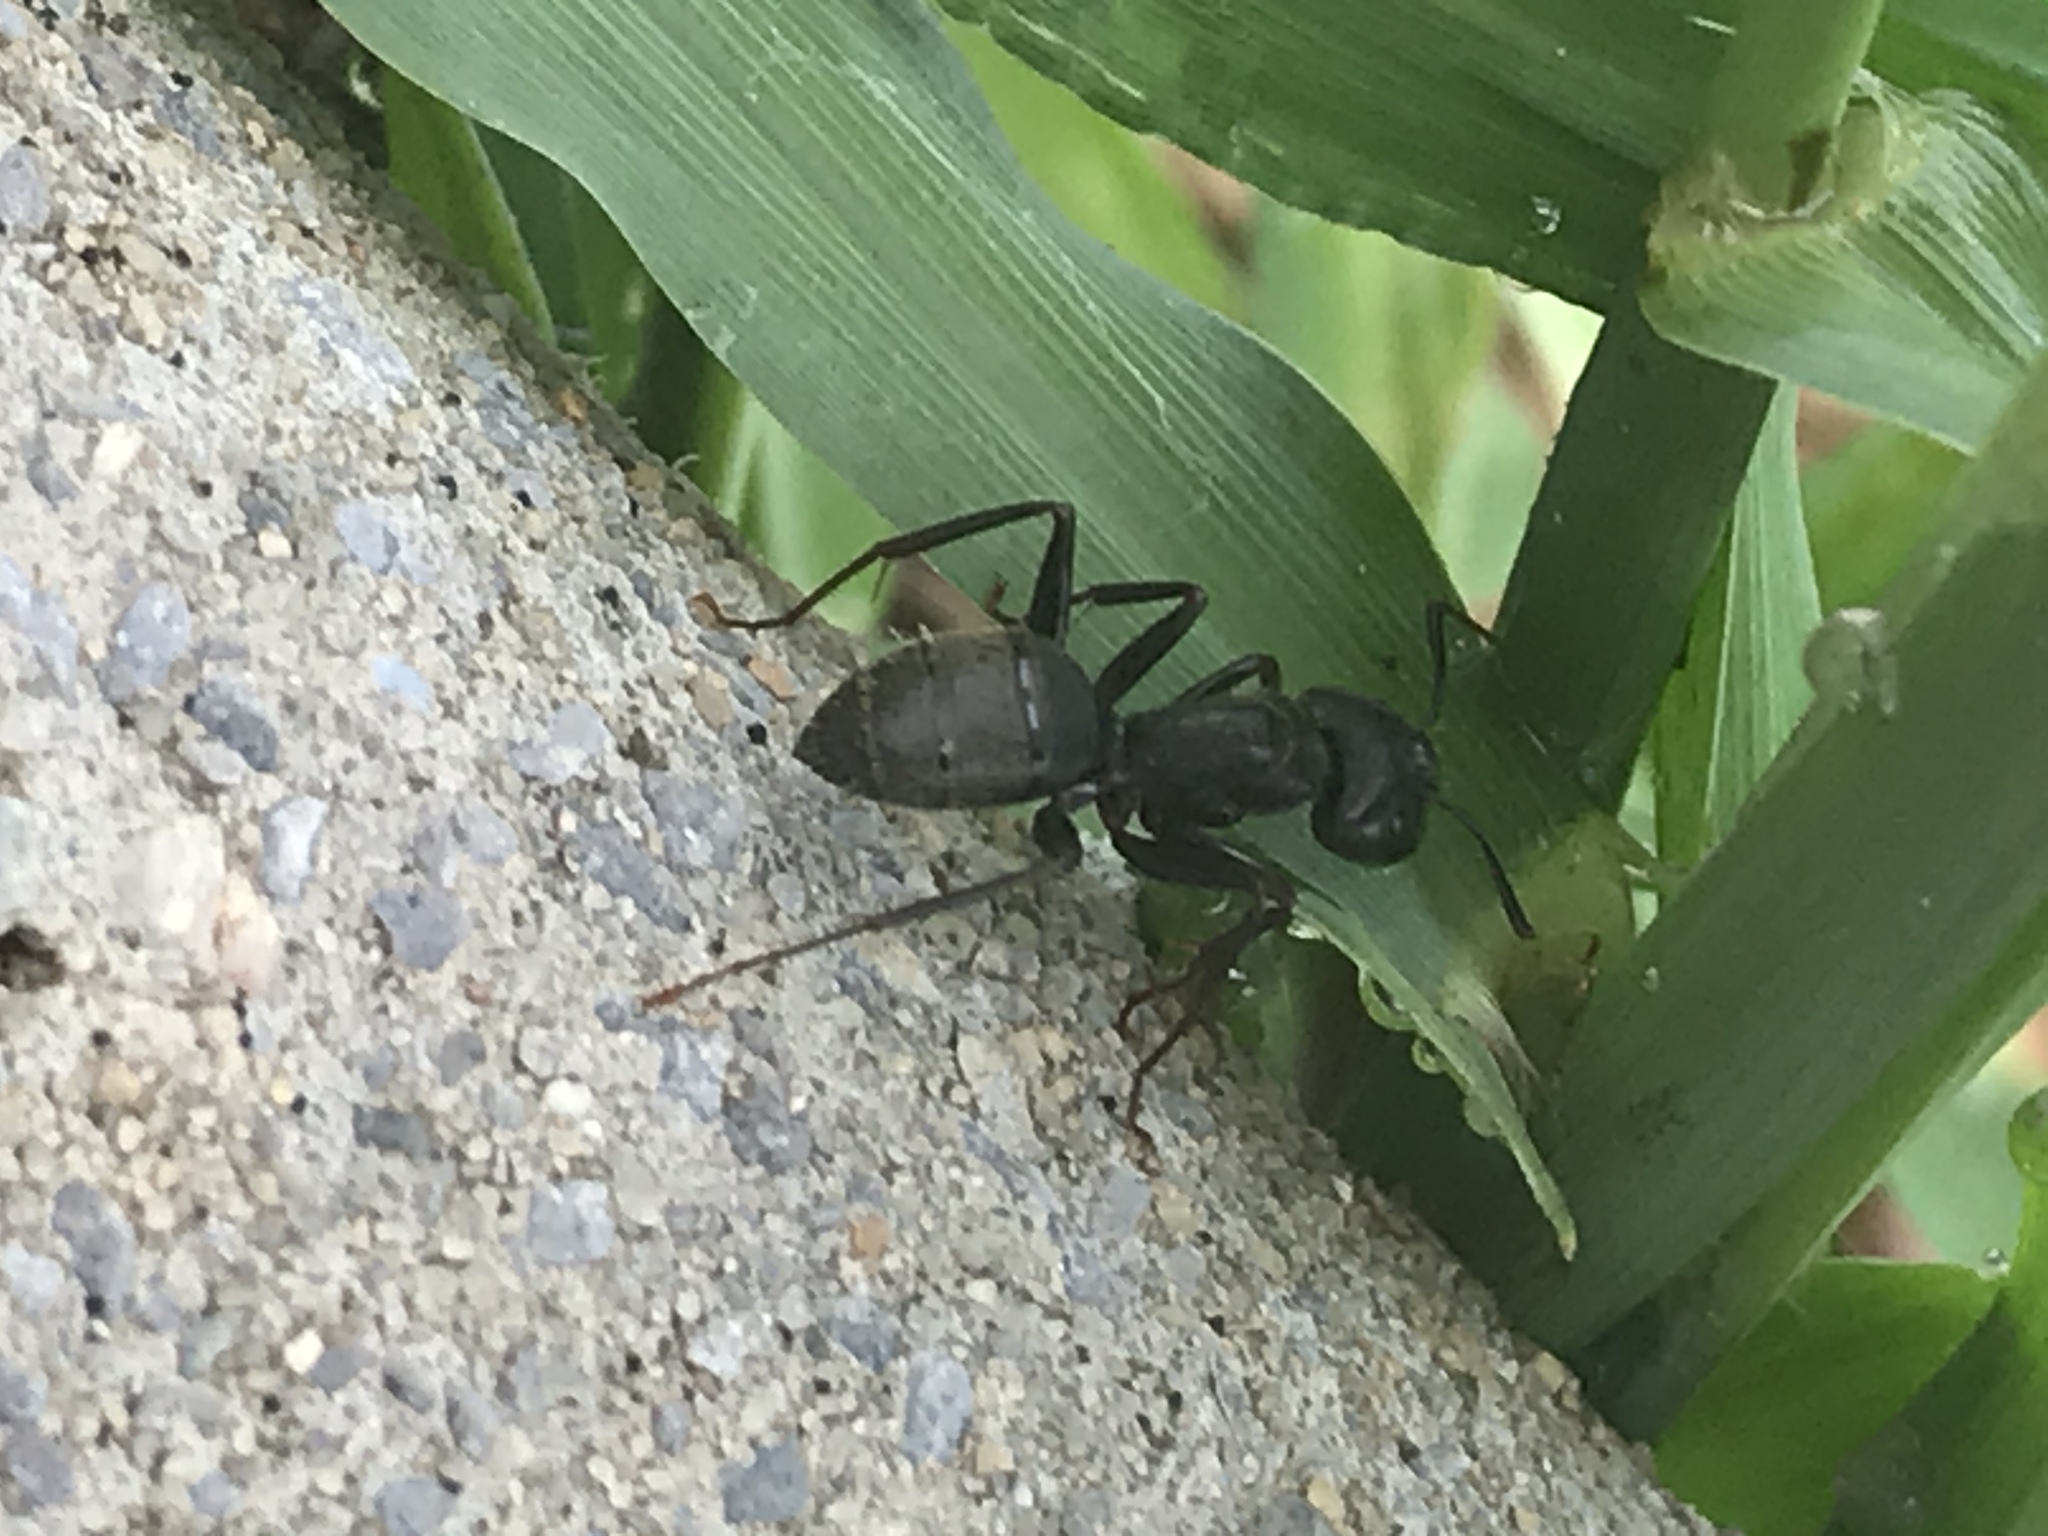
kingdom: Animalia
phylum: Arthropoda
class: Insecta
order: Hymenoptera
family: Formicidae
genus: Camponotus
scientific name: Camponotus pennsylvanicus
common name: Black carpenter ant
